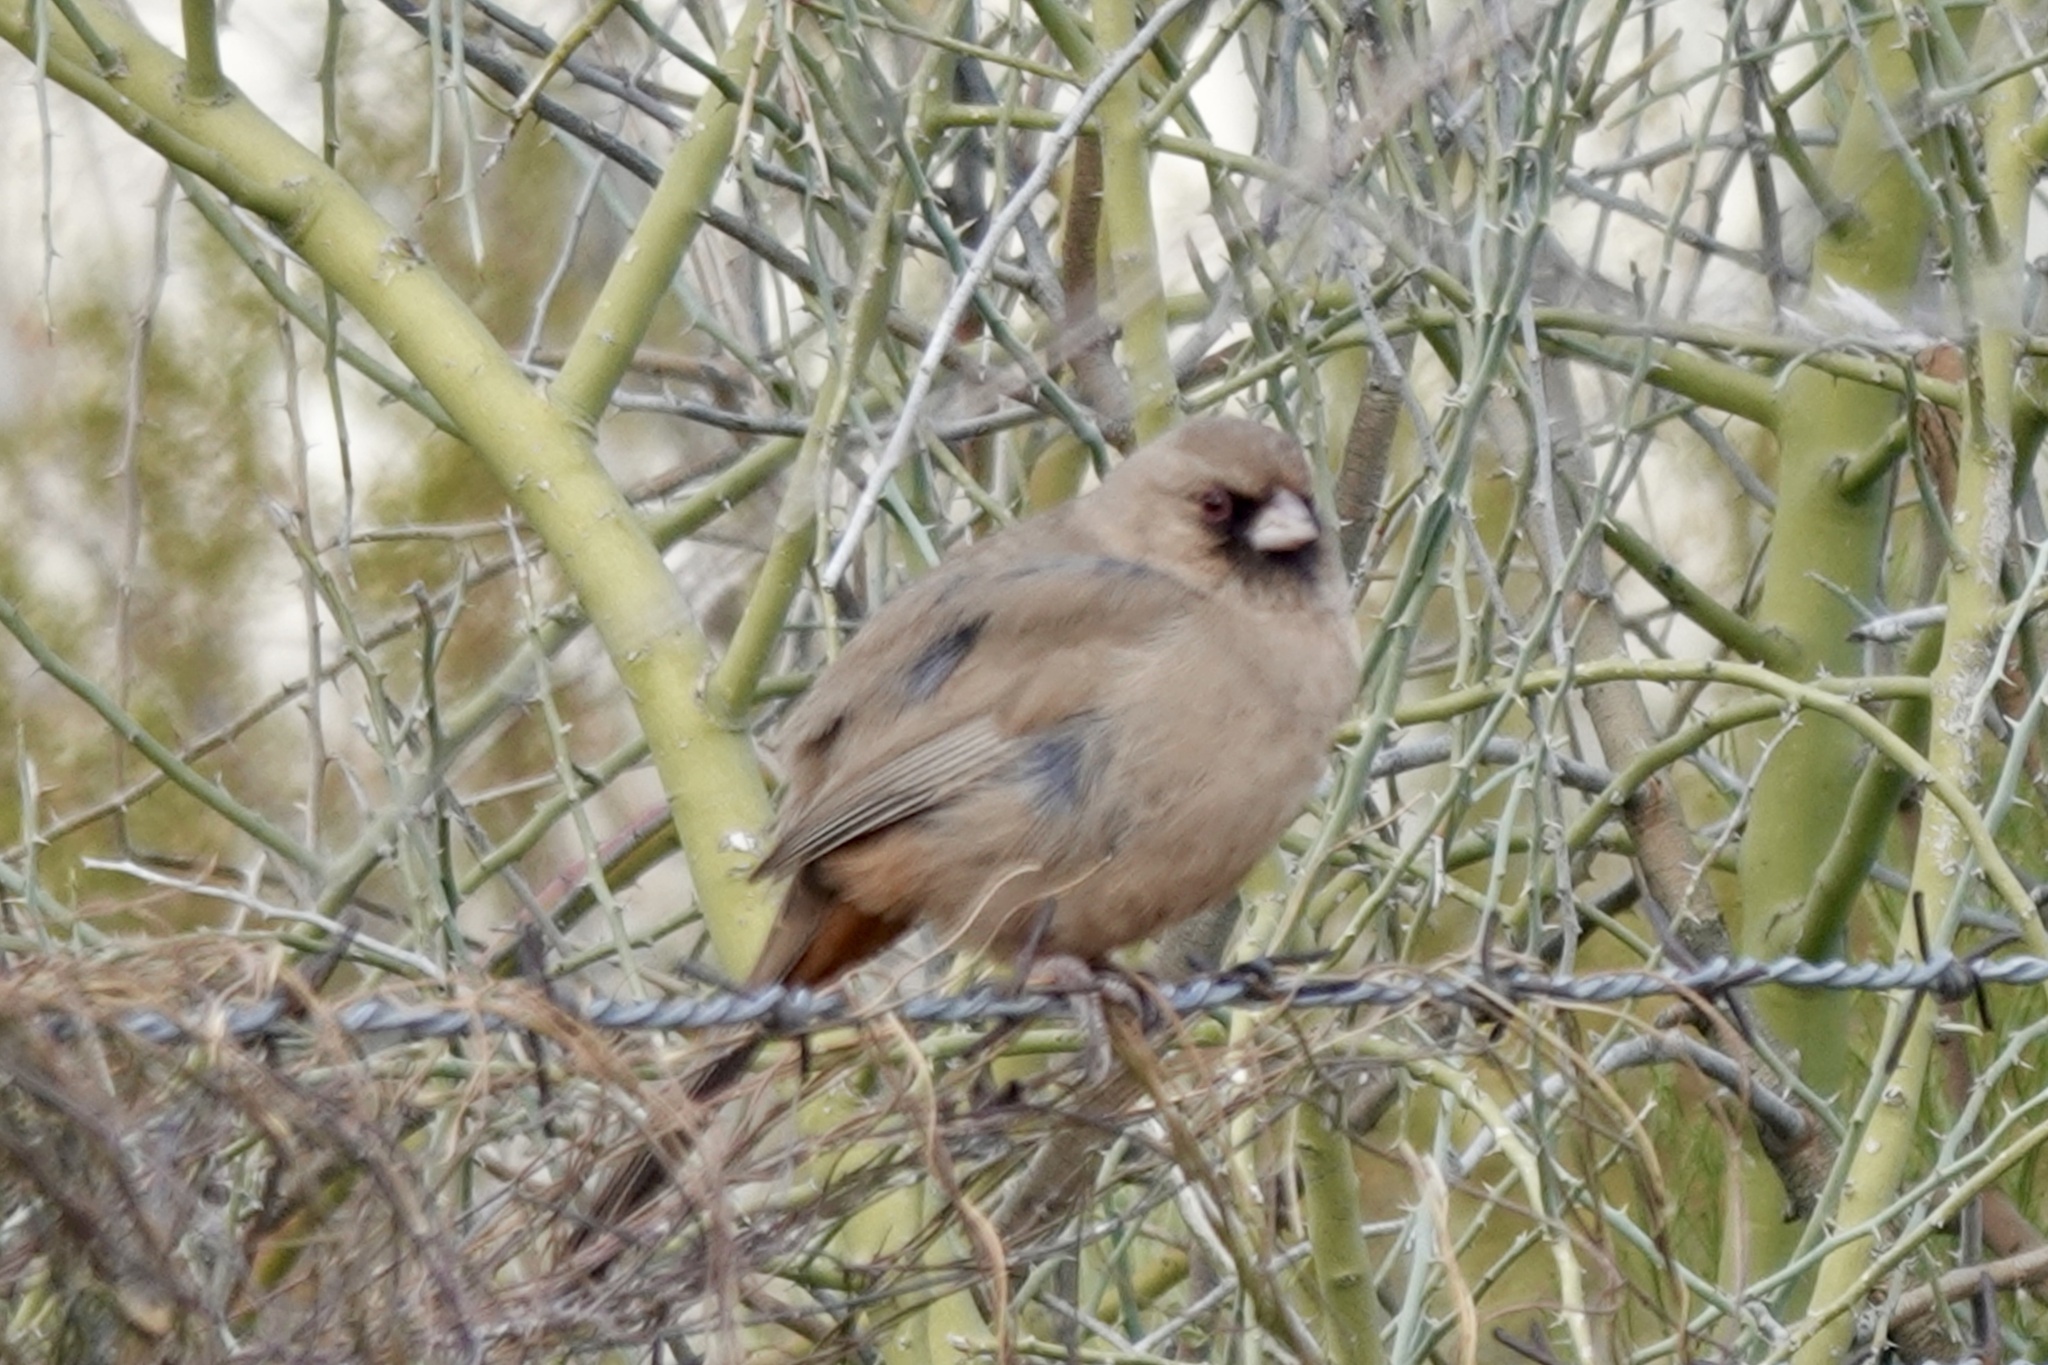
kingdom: Animalia
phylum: Chordata
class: Aves
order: Passeriformes
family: Passerellidae
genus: Melozone
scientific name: Melozone aberti
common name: Abert's towhee
